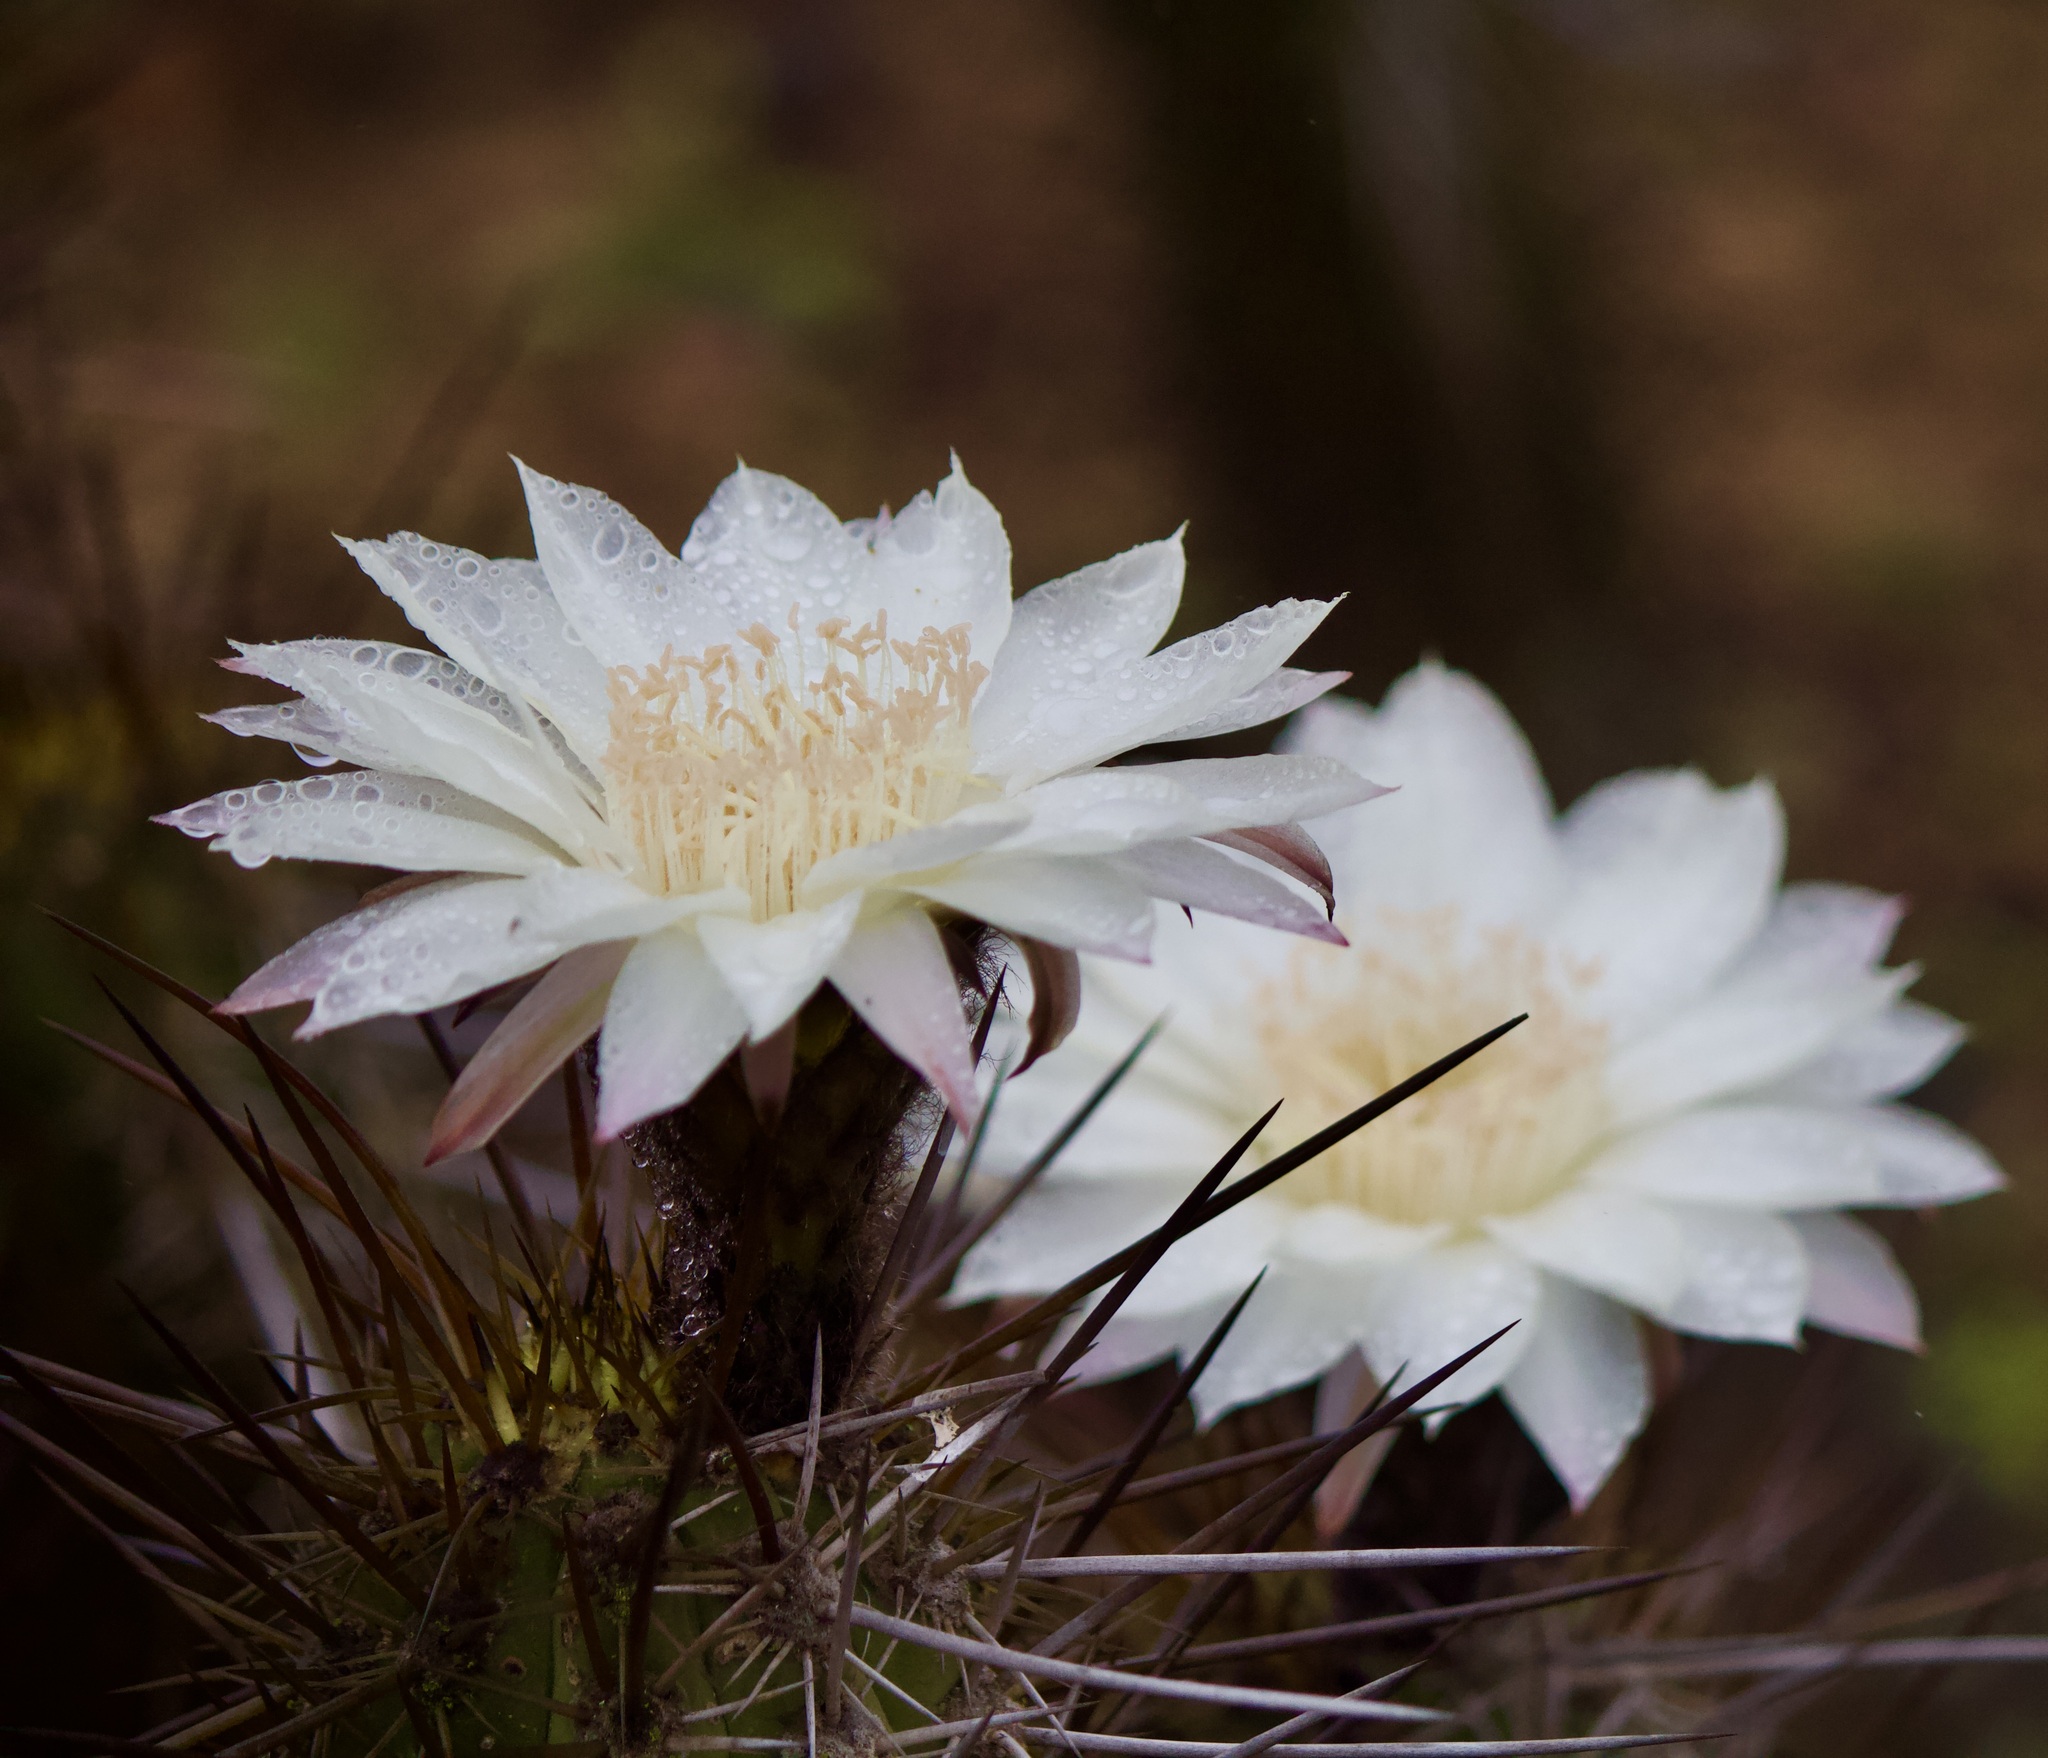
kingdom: Plantae
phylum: Tracheophyta
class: Magnoliopsida
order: Caryophyllales
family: Cactaceae
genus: Leucostele
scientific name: Leucostele deserticola
